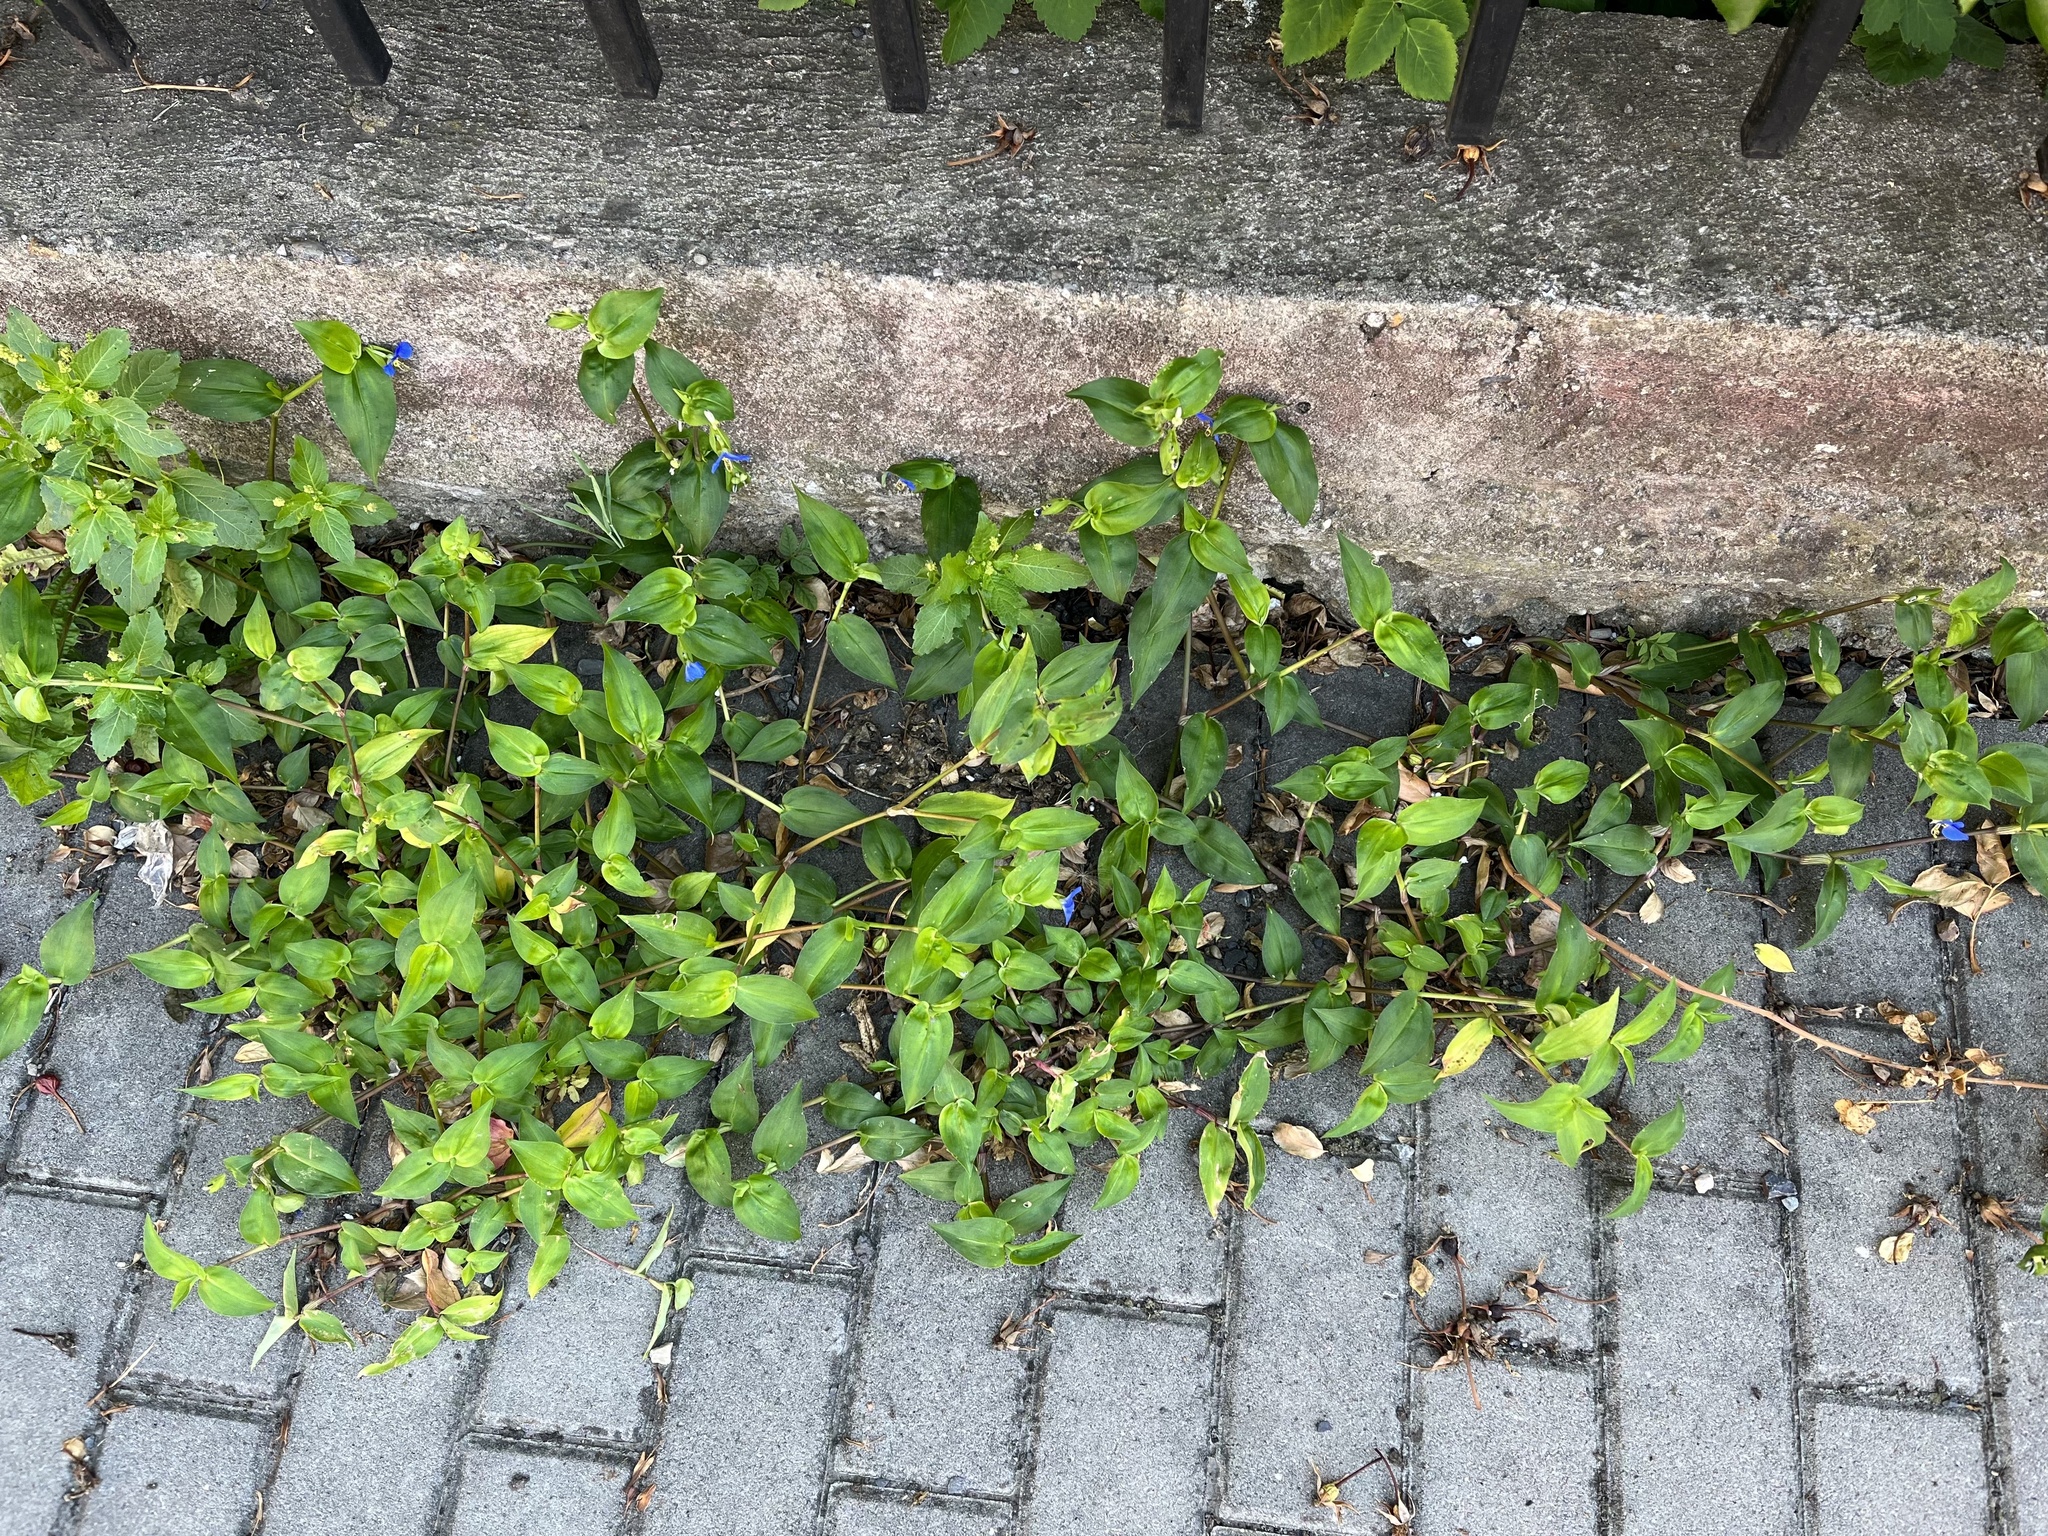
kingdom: Plantae
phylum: Tracheophyta
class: Liliopsida
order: Commelinales
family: Commelinaceae
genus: Commelina
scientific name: Commelina communis
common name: Asiatic dayflower
